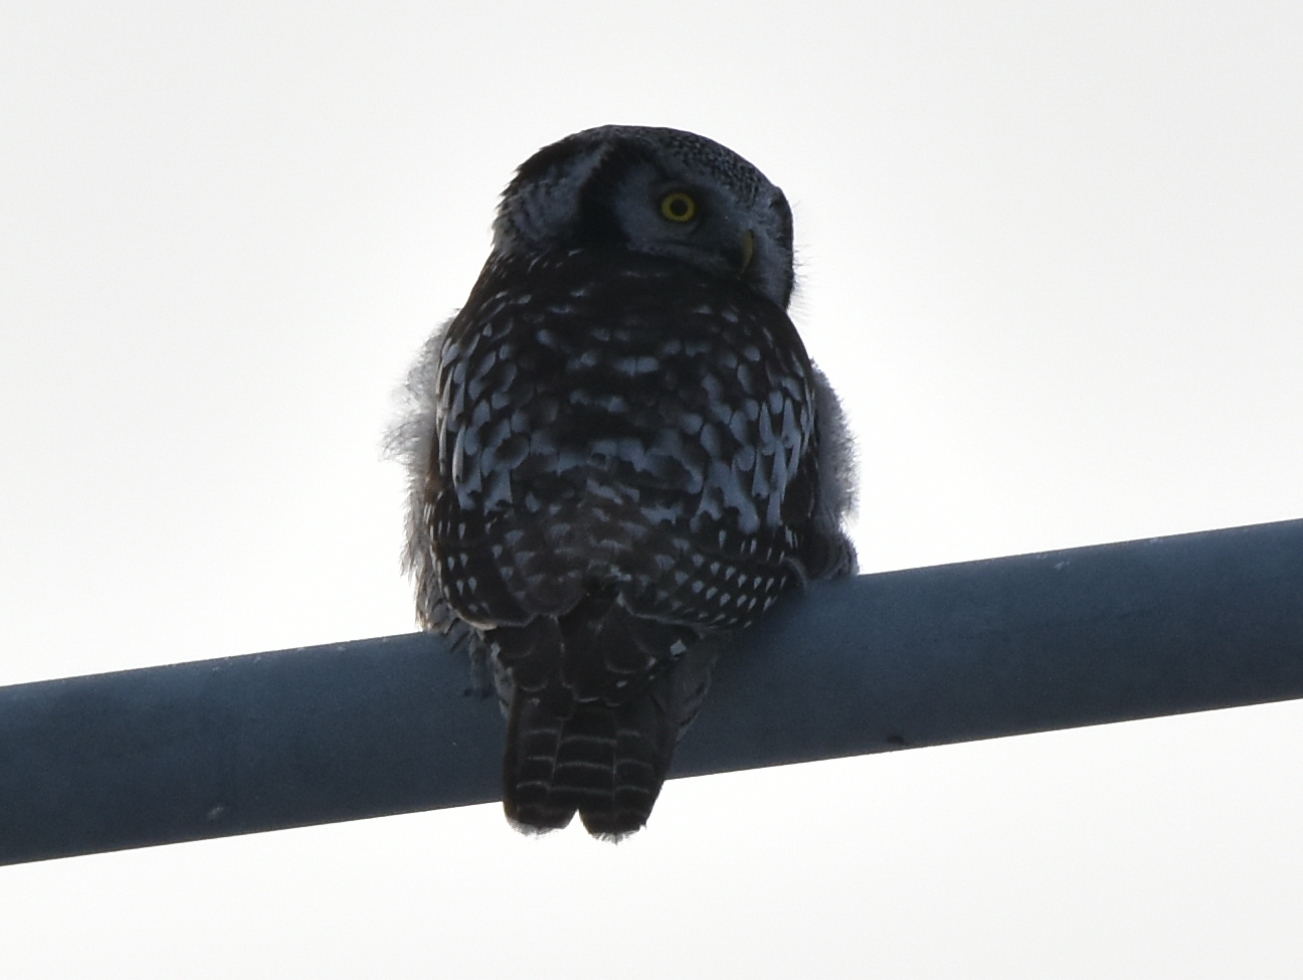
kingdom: Animalia
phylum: Chordata
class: Aves
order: Strigiformes
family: Strigidae
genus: Surnia
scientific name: Surnia ulula
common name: Northern hawk-owl
